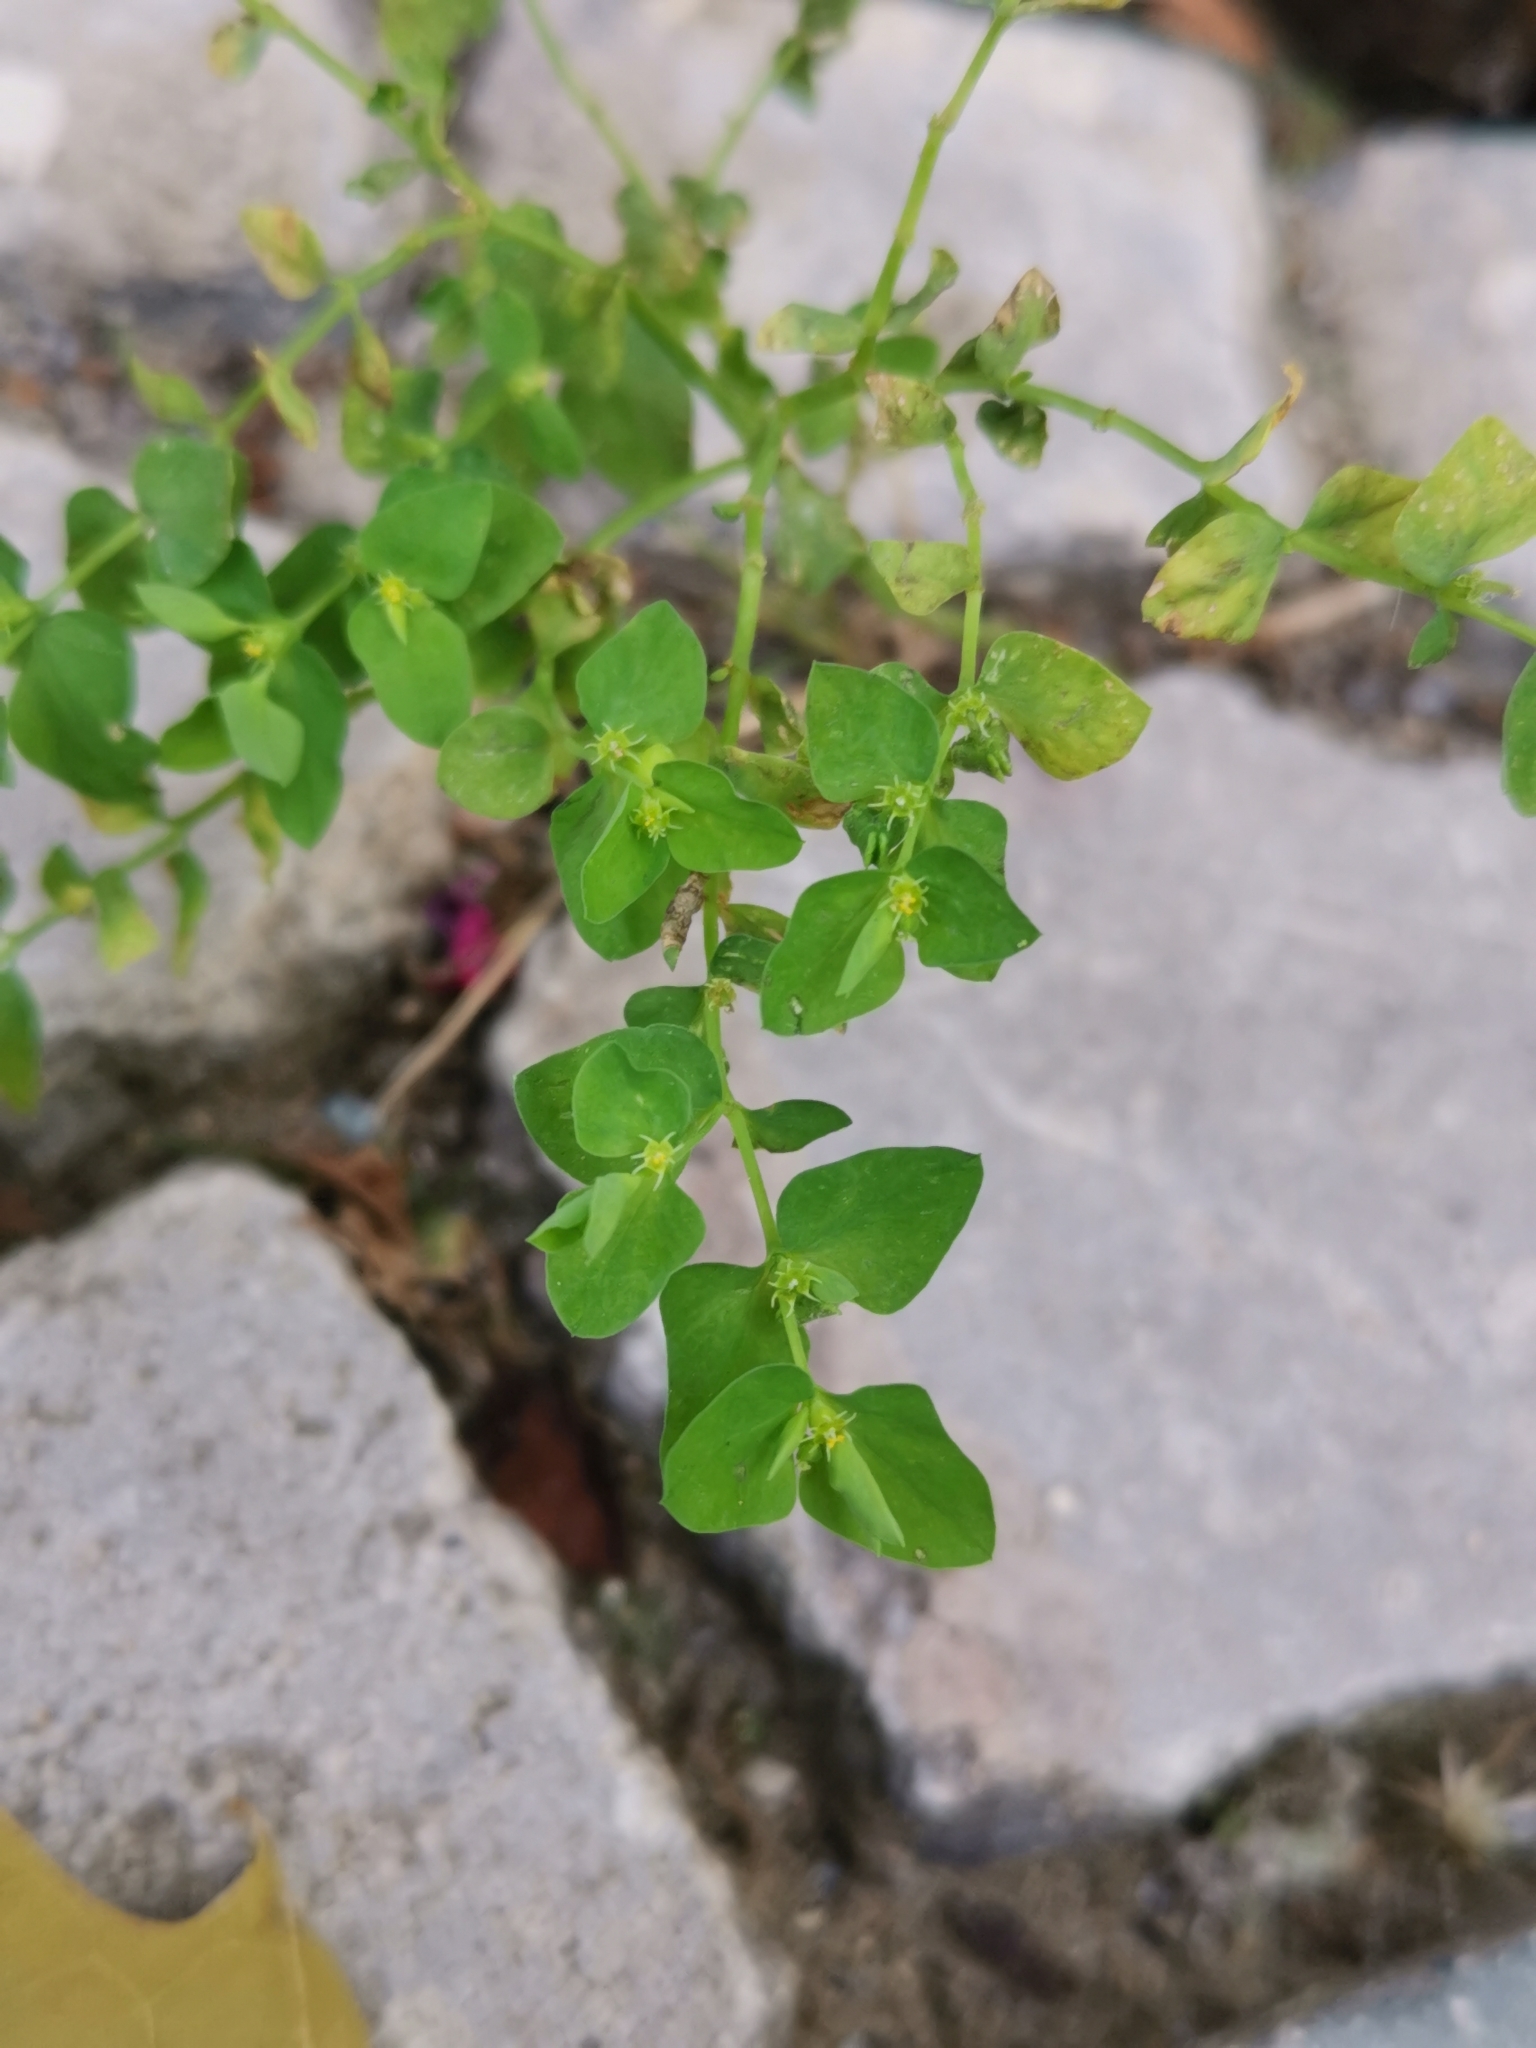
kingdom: Plantae
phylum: Tracheophyta
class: Magnoliopsida
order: Malpighiales
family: Euphorbiaceae
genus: Euphorbia
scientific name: Euphorbia peplus
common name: Petty spurge
